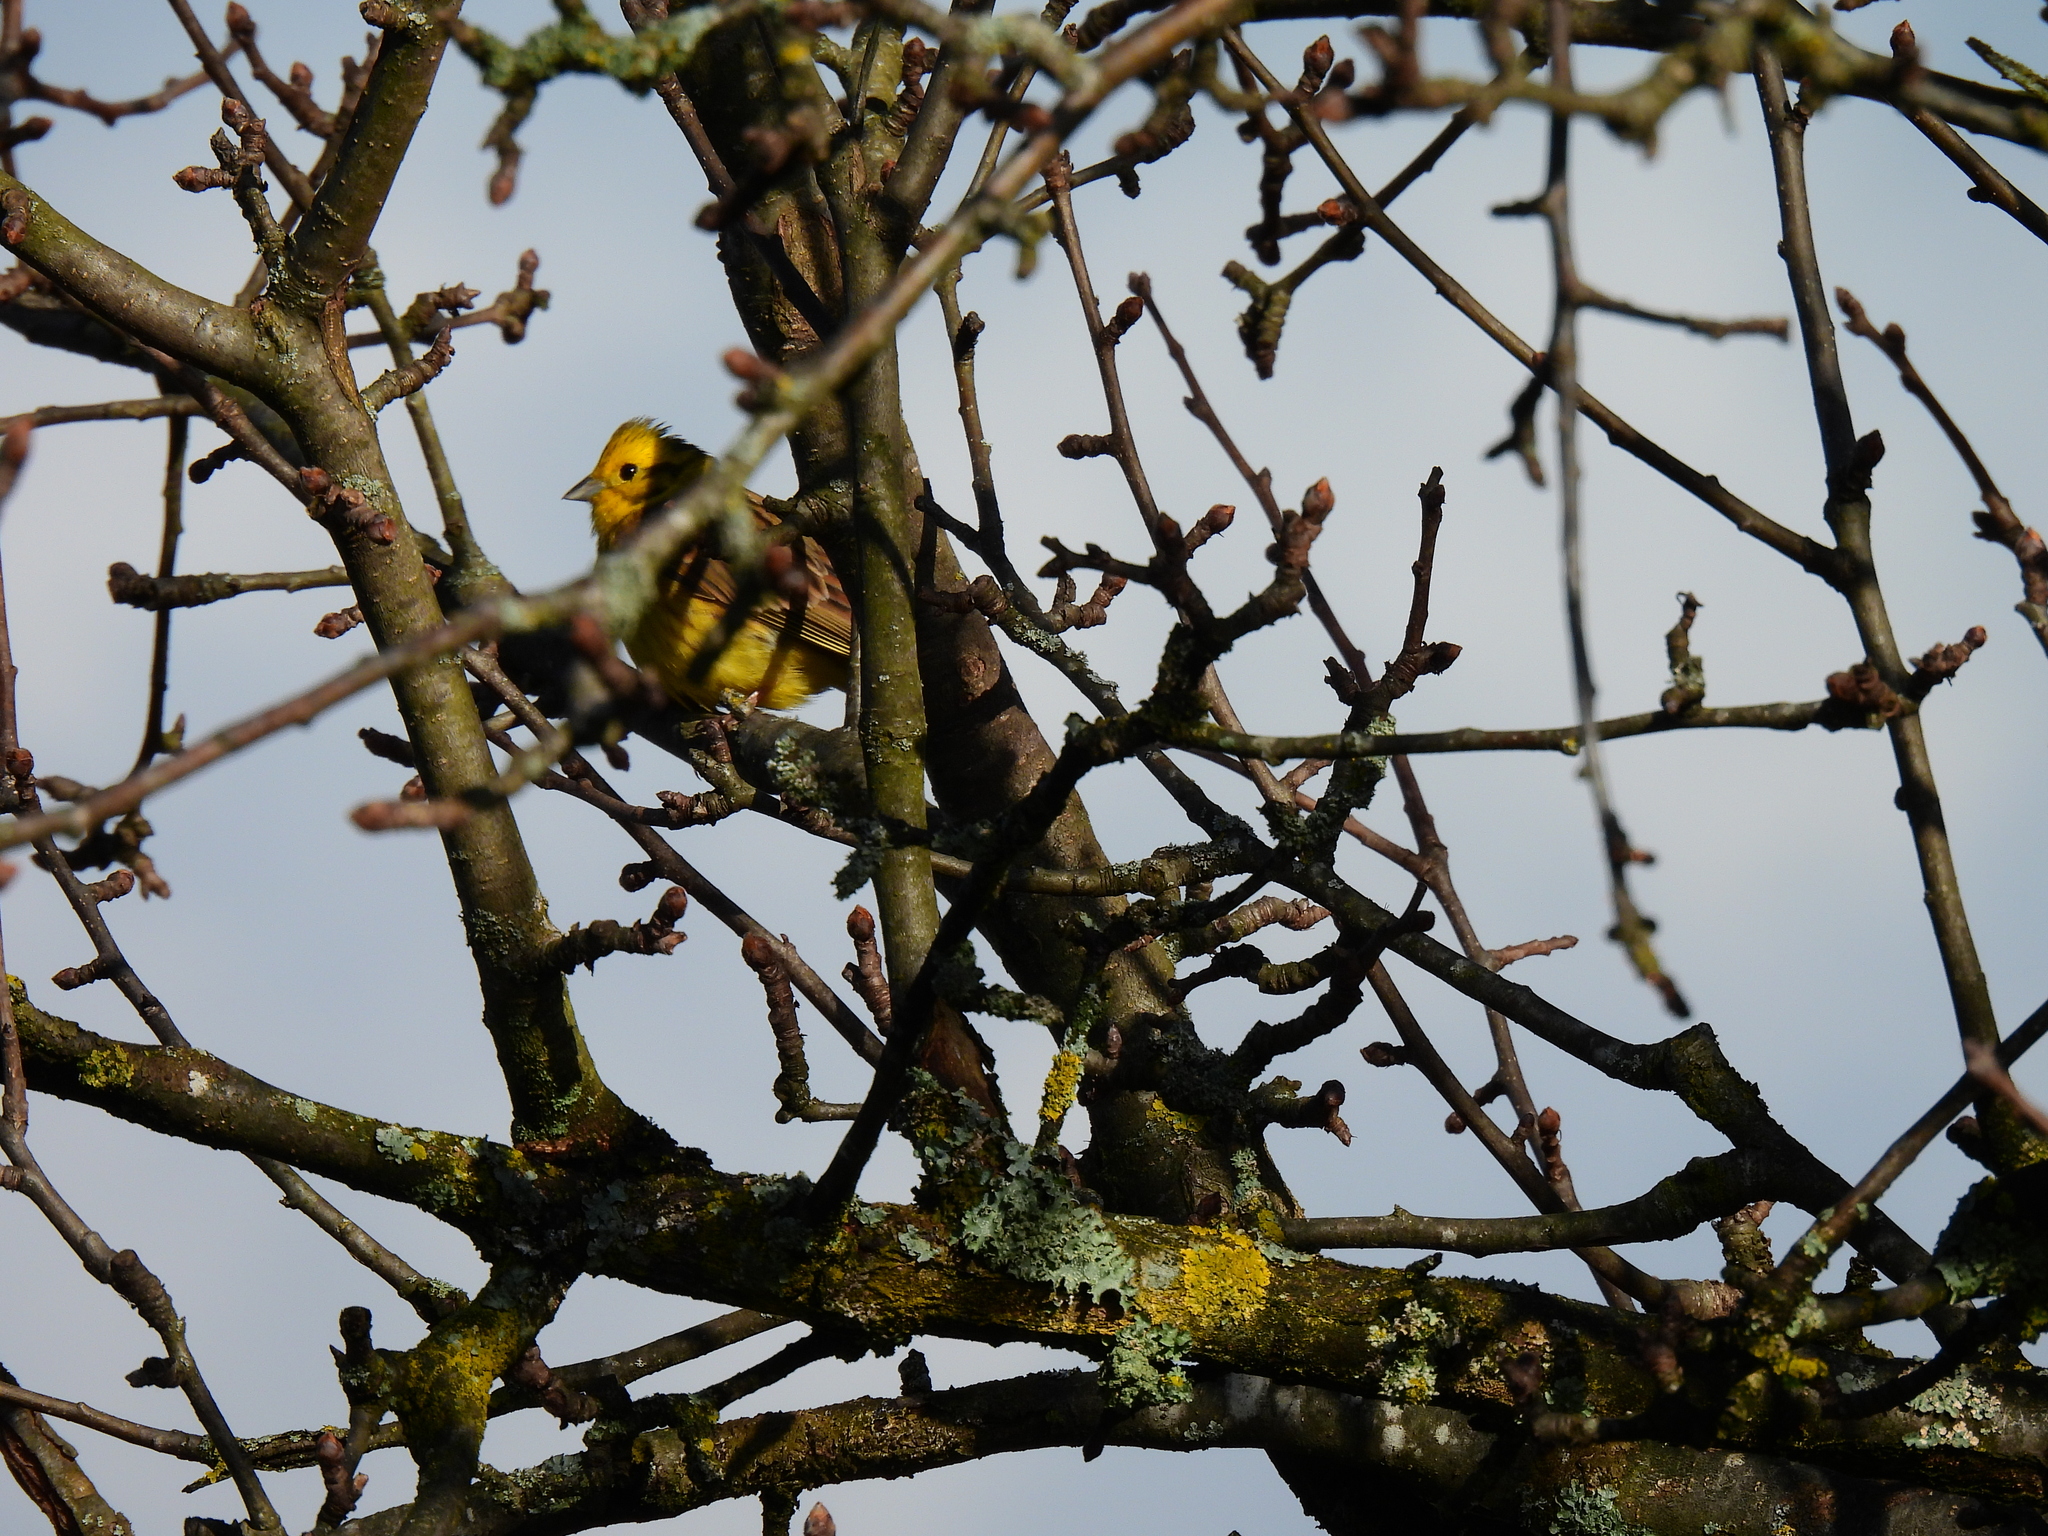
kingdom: Animalia
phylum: Chordata
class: Aves
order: Passeriformes
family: Emberizidae
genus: Emberiza
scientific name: Emberiza citrinella
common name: Yellowhammer
